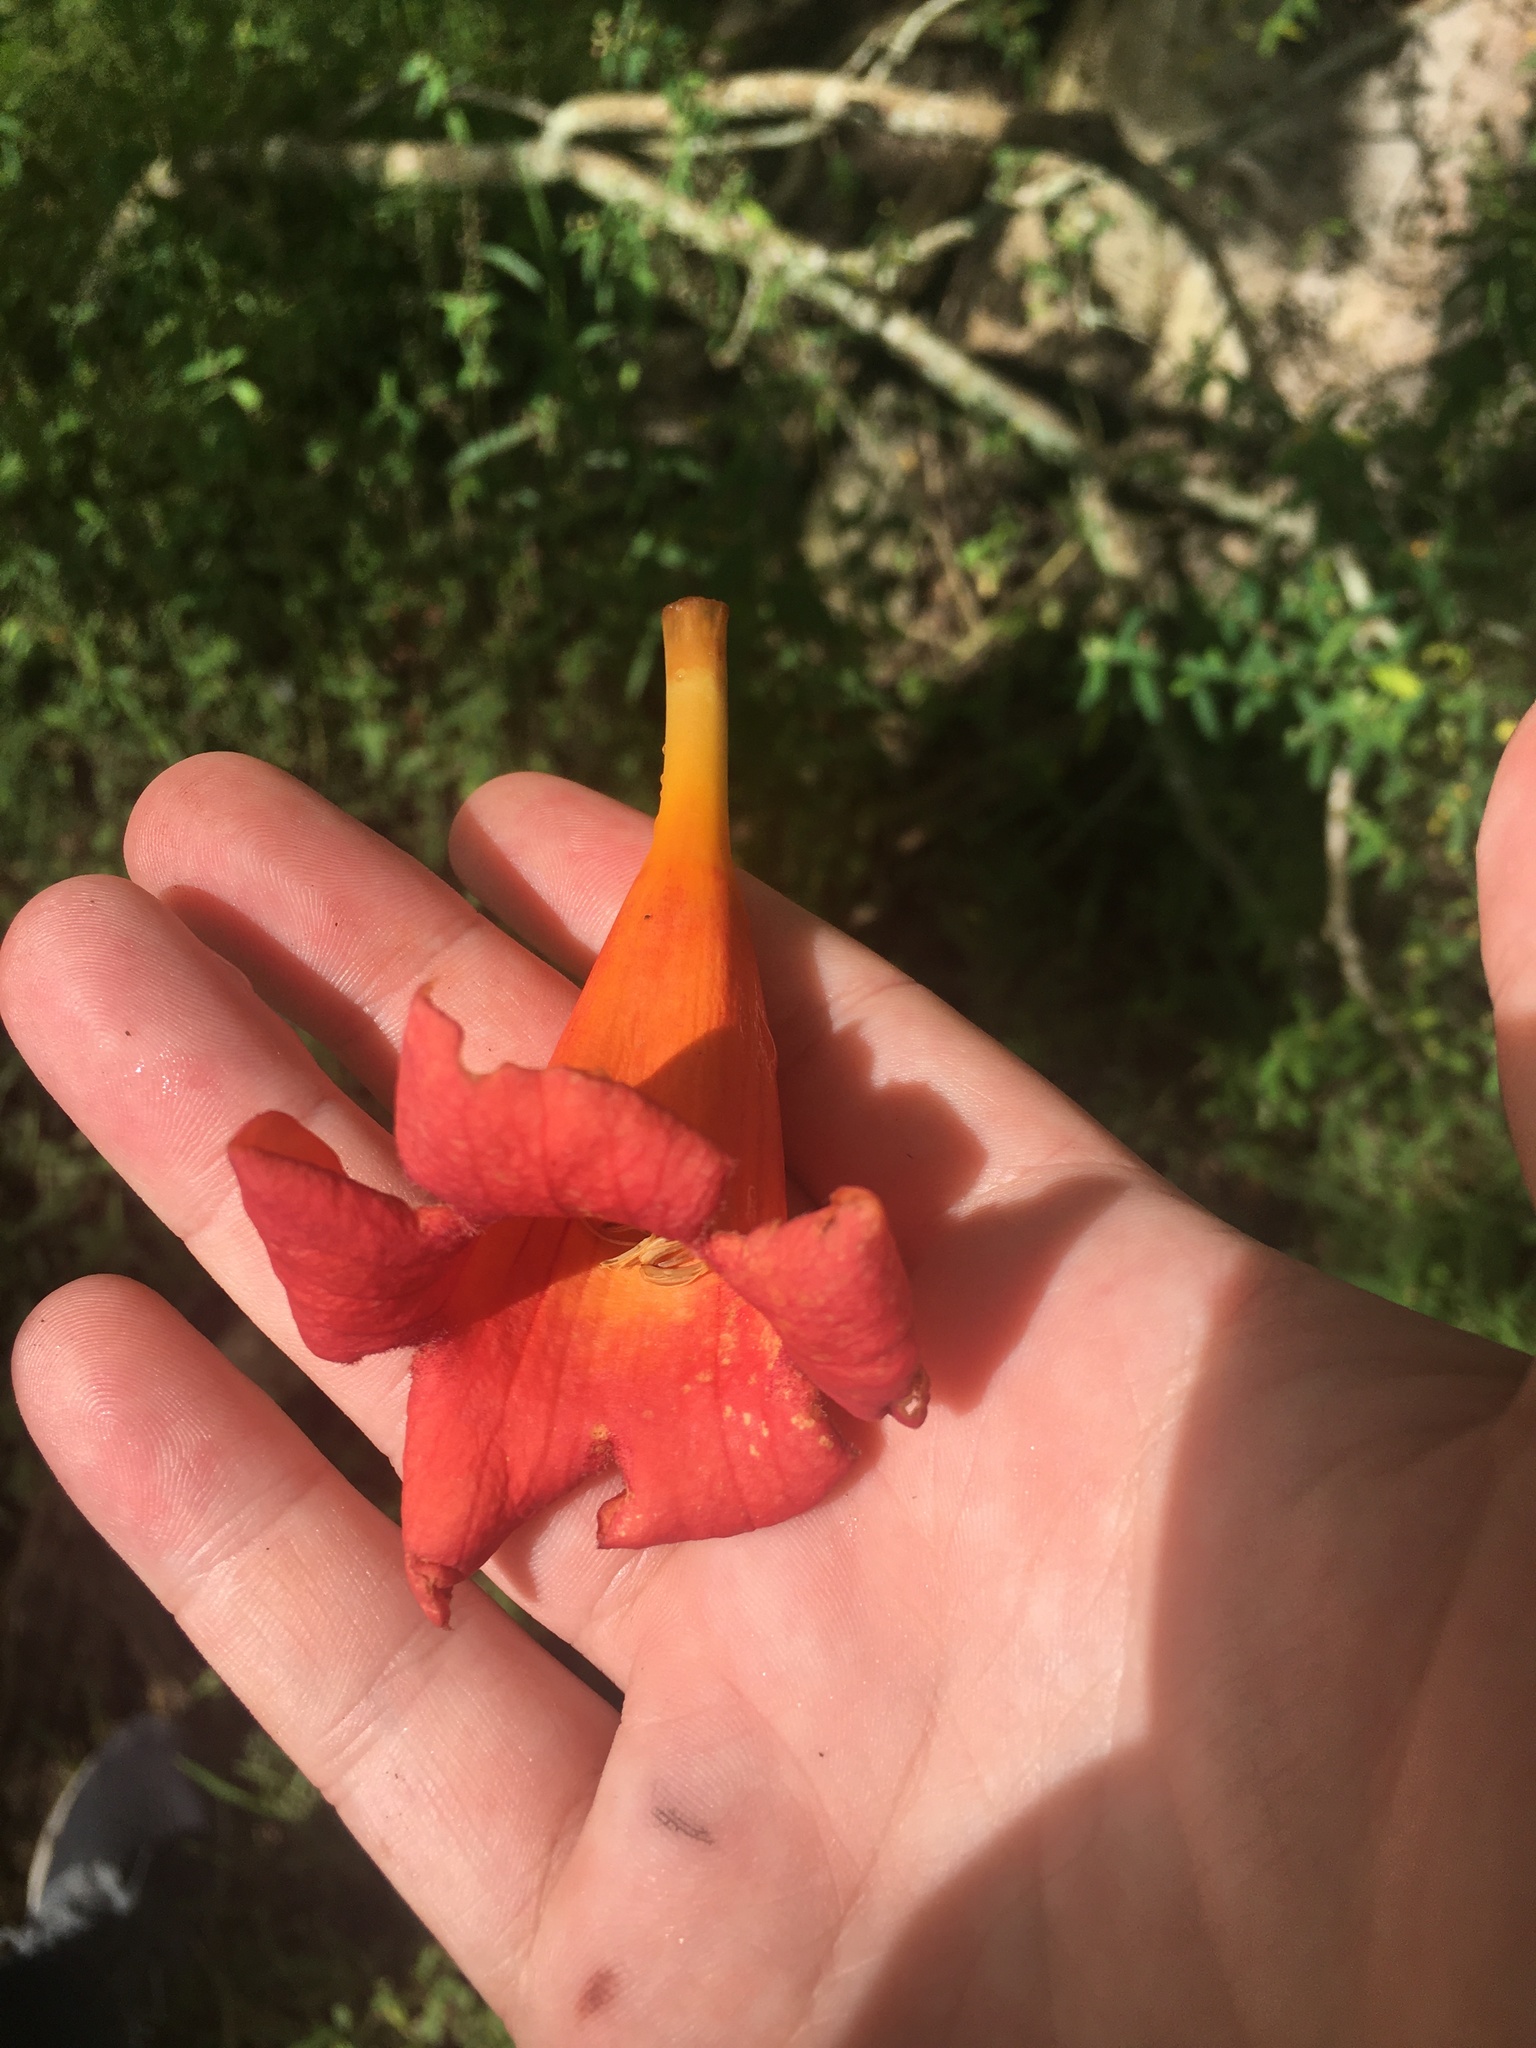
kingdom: Plantae
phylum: Tracheophyta
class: Magnoliopsida
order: Lamiales
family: Bignoniaceae
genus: Campsis
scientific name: Campsis radicans
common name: Trumpet-creeper
